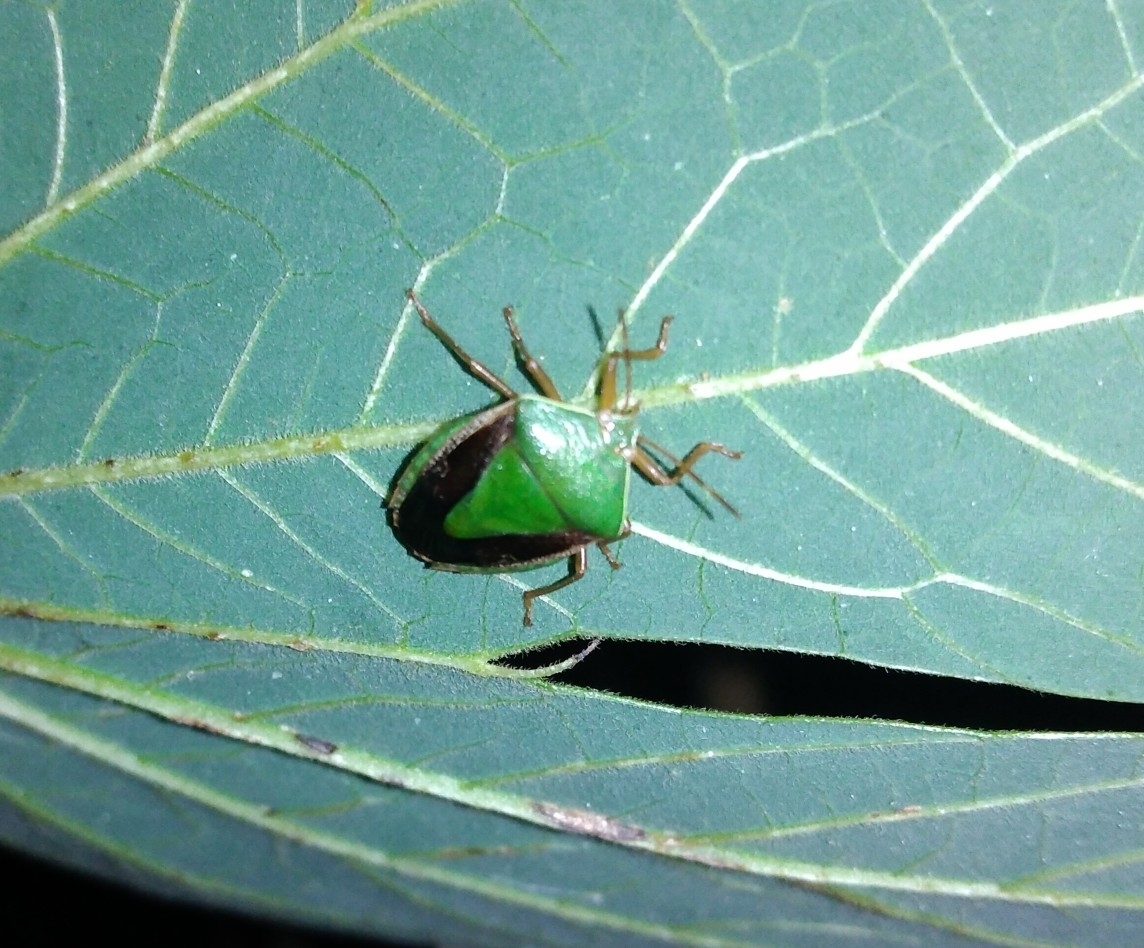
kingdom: Animalia
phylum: Arthropoda
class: Insecta
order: Hemiptera
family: Pentatomidae
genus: Edessa
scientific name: Edessa meditabunda
